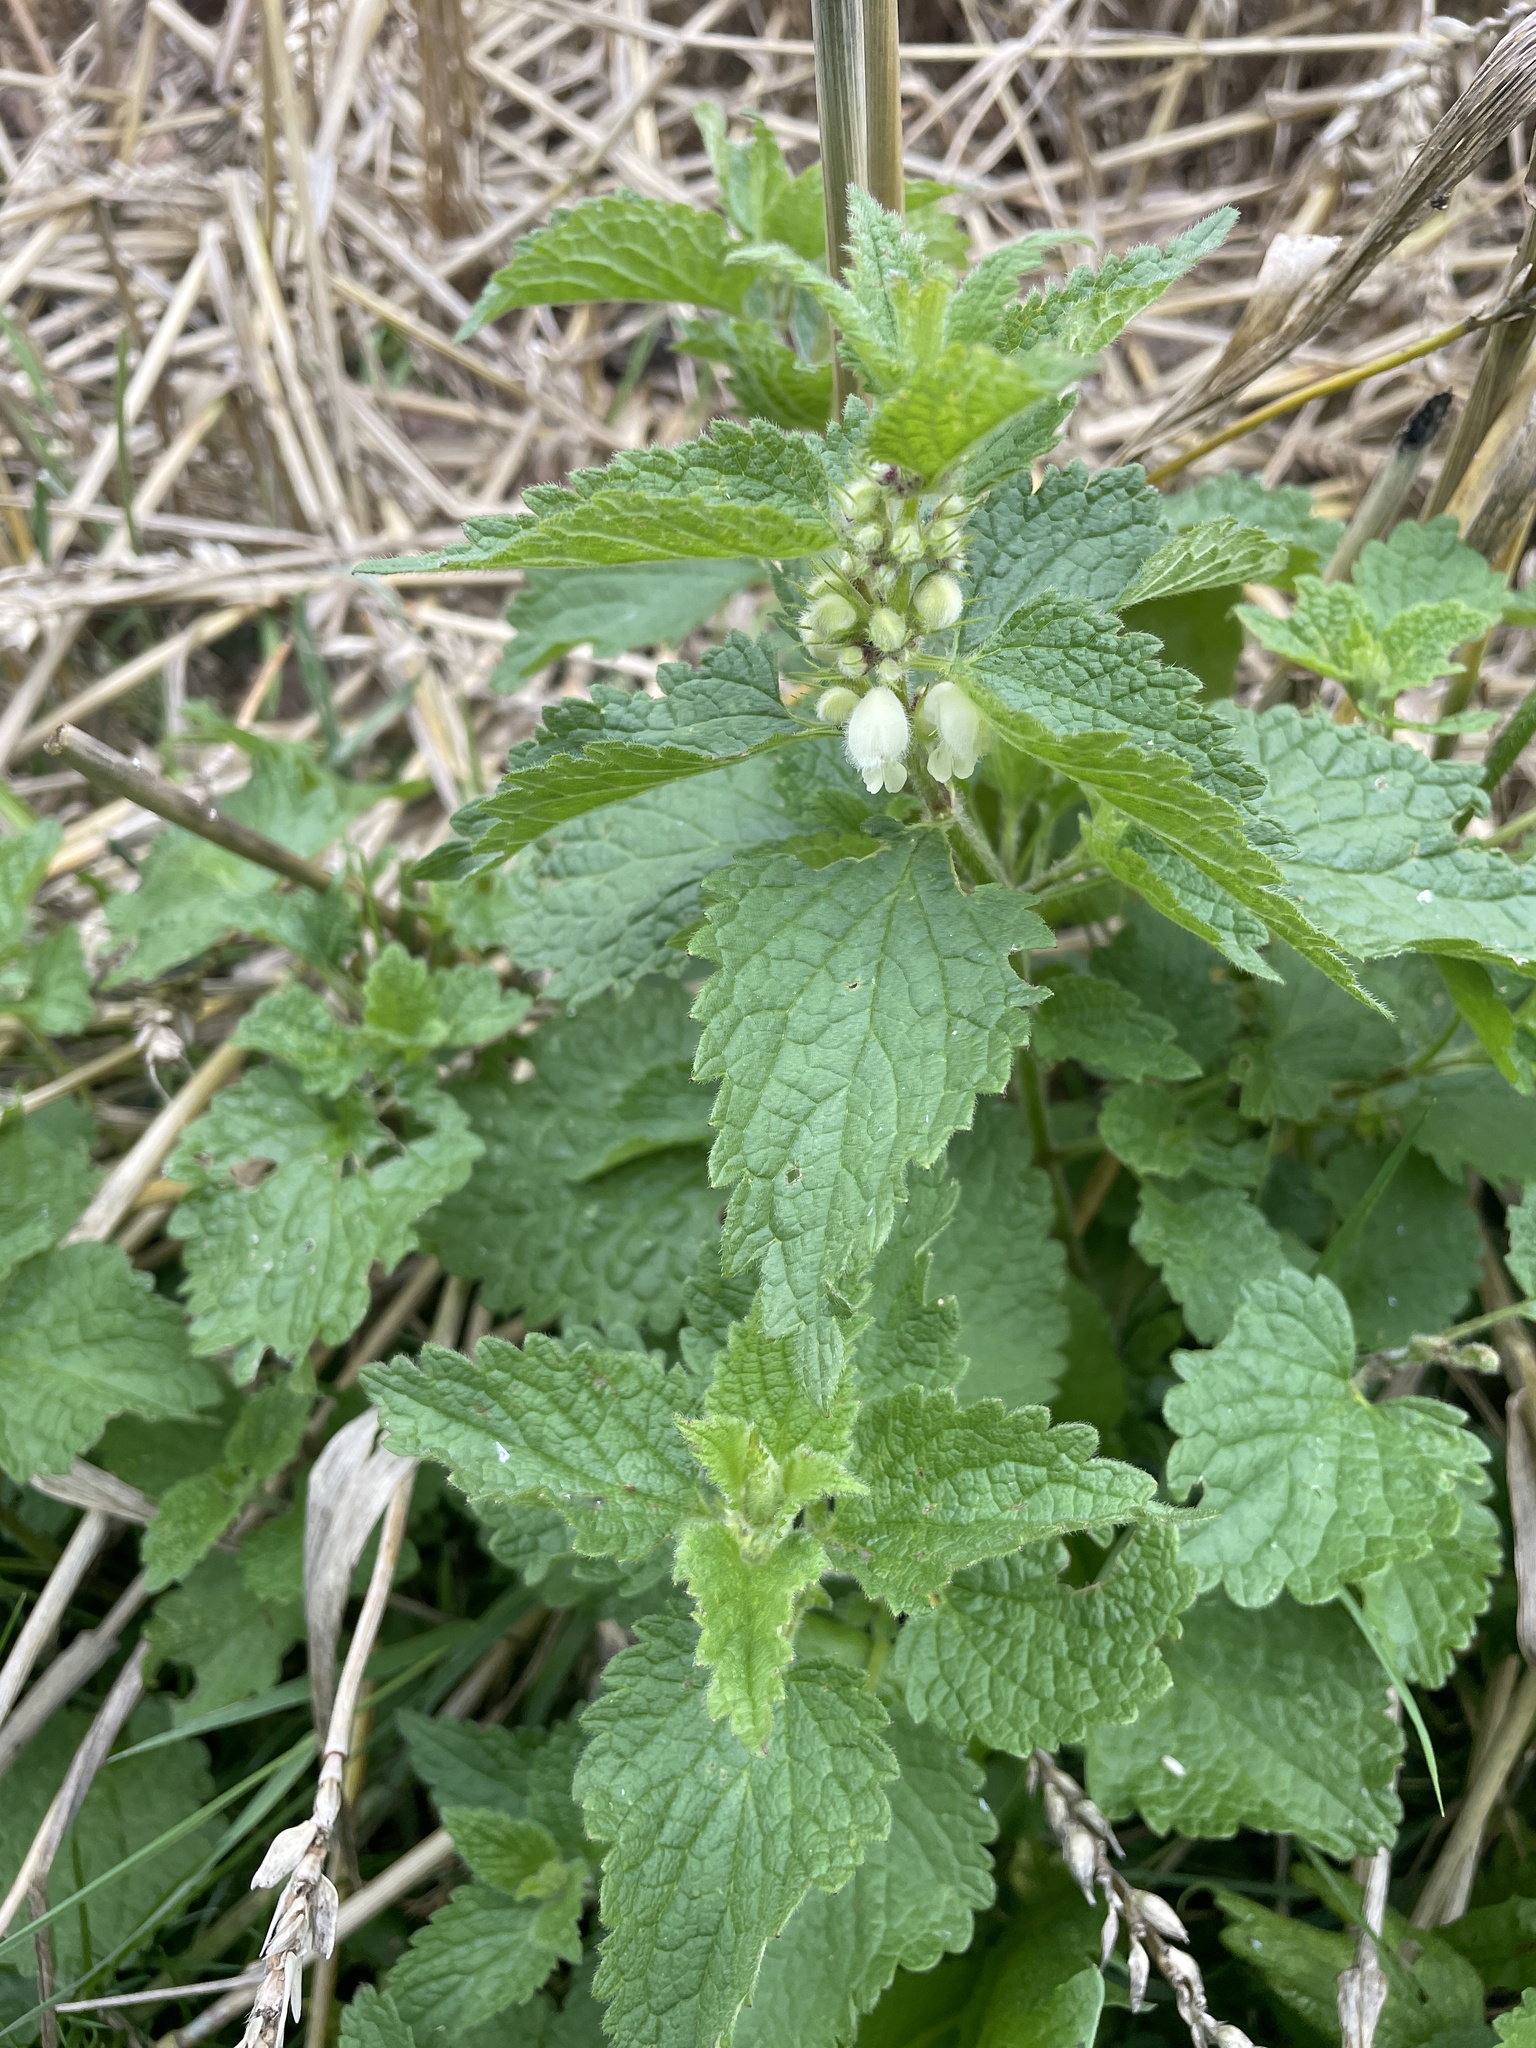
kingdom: Plantae
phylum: Tracheophyta
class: Magnoliopsida
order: Lamiales
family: Lamiaceae
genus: Lamium
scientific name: Lamium album
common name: White dead-nettle
